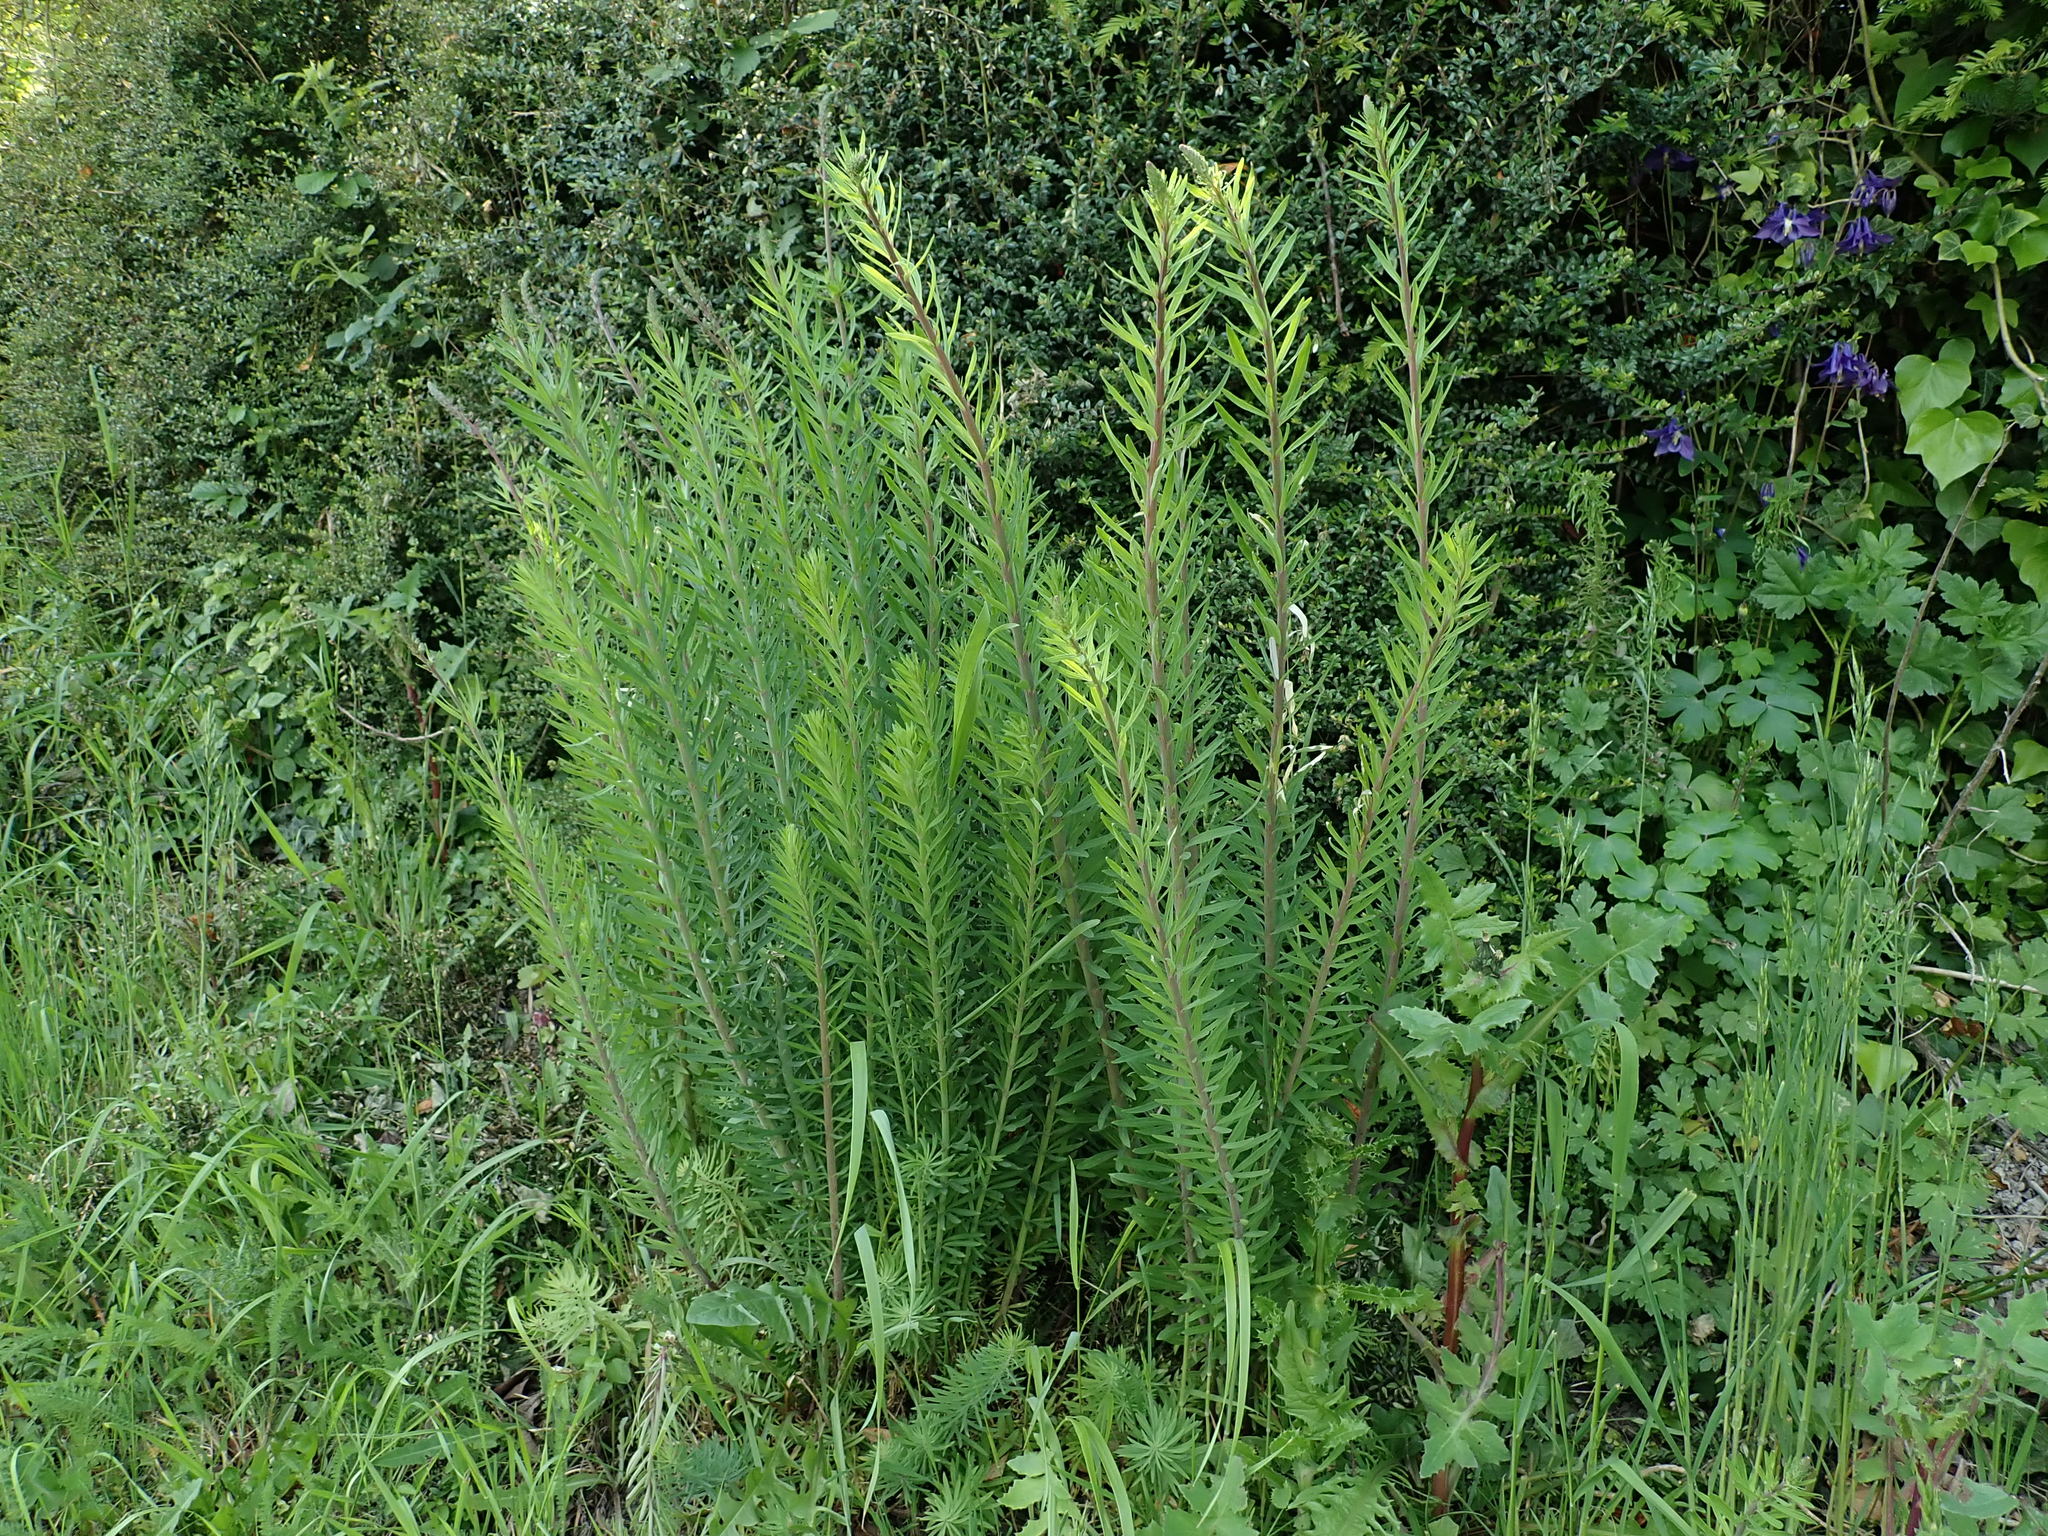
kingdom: Plantae
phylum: Tracheophyta
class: Magnoliopsida
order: Lamiales
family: Plantaginaceae
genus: Linaria
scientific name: Linaria purpurea
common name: Purple toadflax
